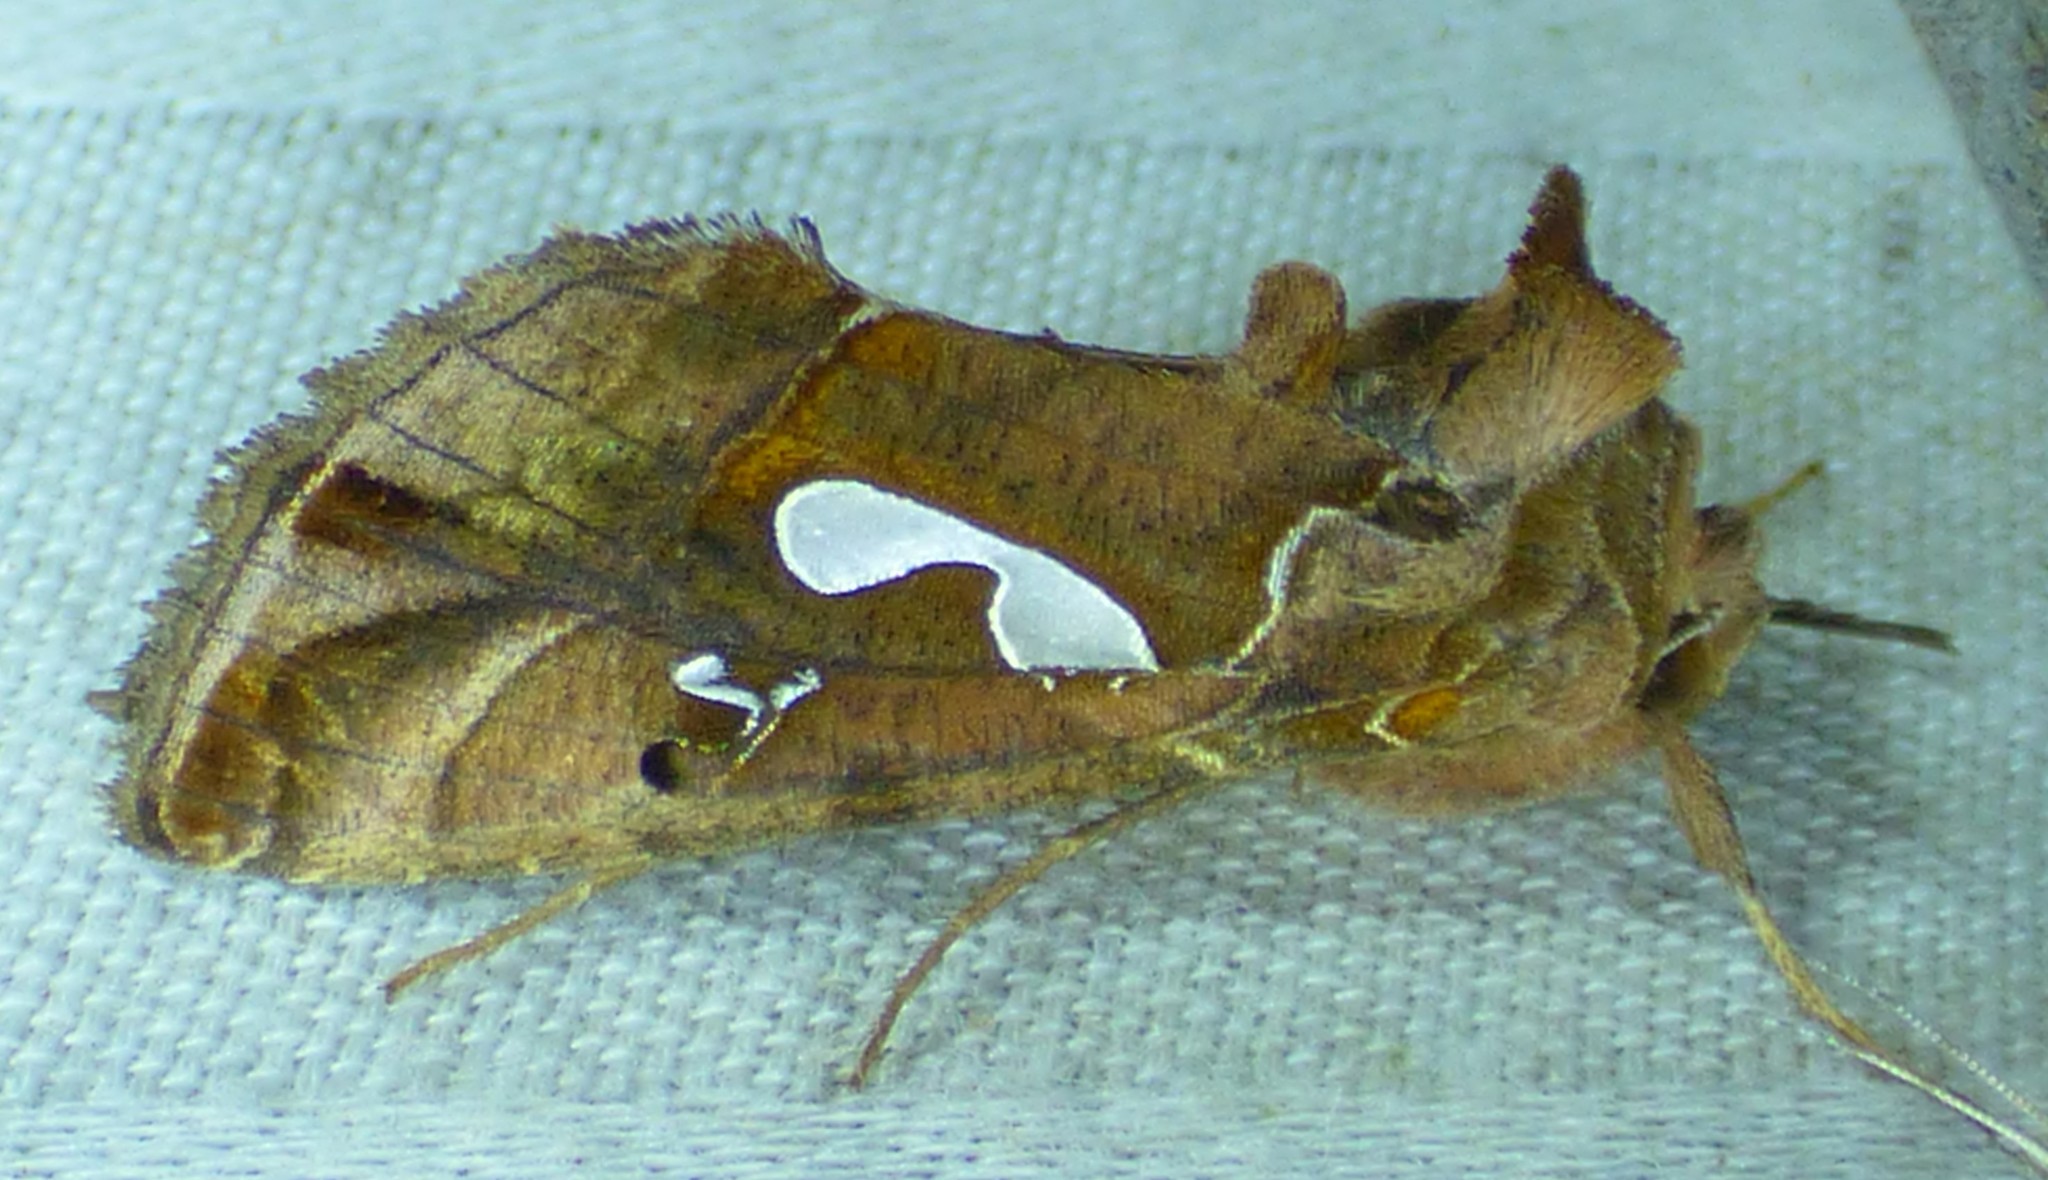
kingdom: Animalia
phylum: Arthropoda
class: Insecta
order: Lepidoptera
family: Noctuidae
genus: Megalographa
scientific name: Megalographa biloba
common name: Cutworm
